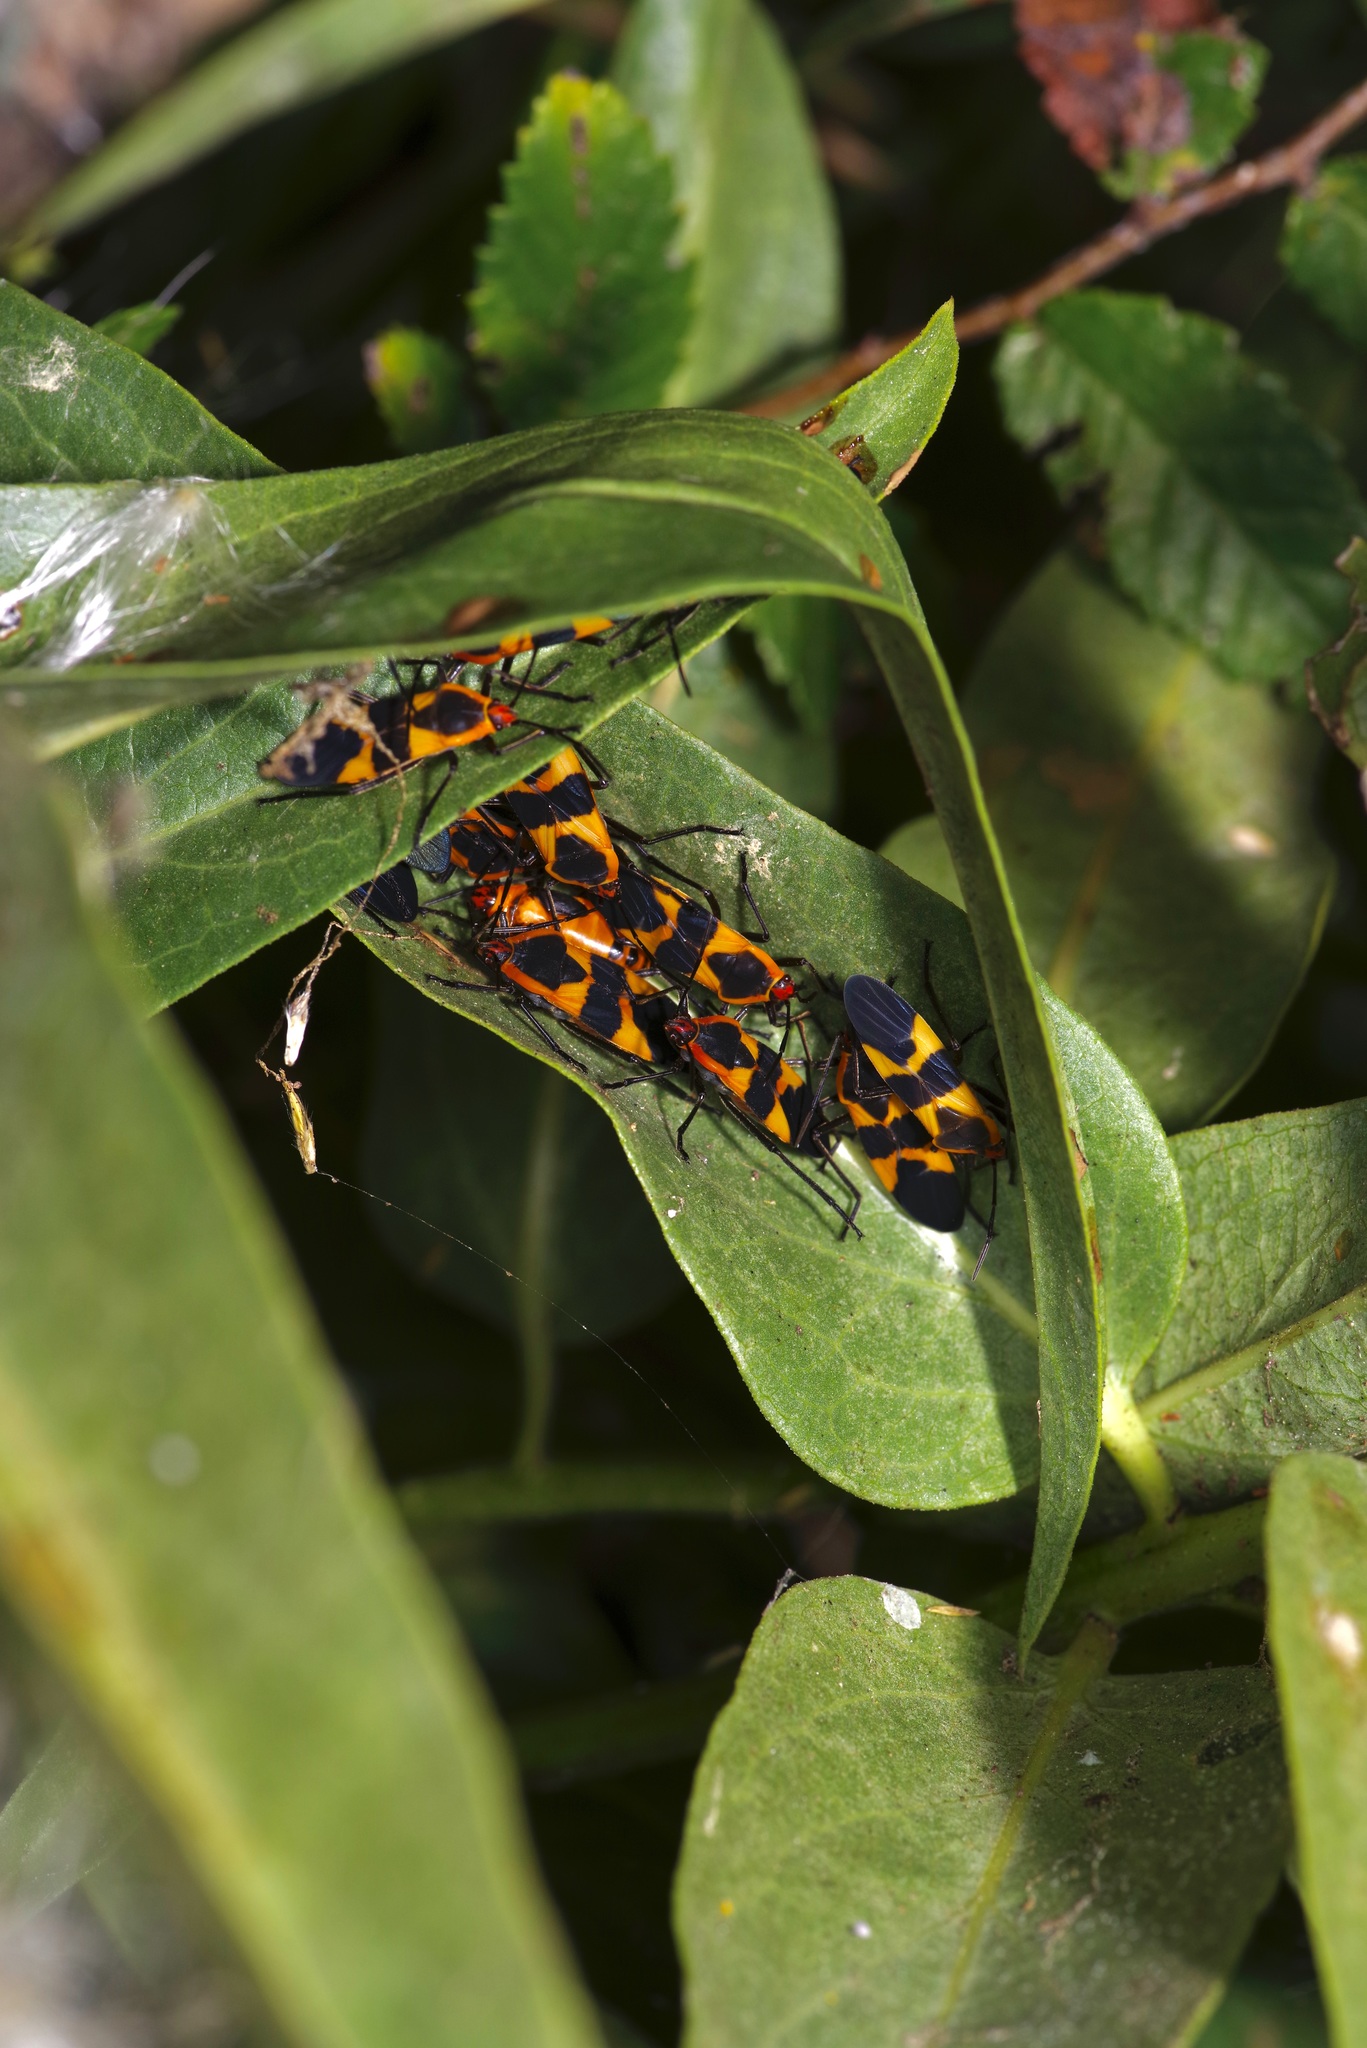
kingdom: Animalia
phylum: Arthropoda
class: Insecta
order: Hemiptera
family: Lygaeidae
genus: Oncopeltus
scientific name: Oncopeltus fasciatus
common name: Large milkweed bug
